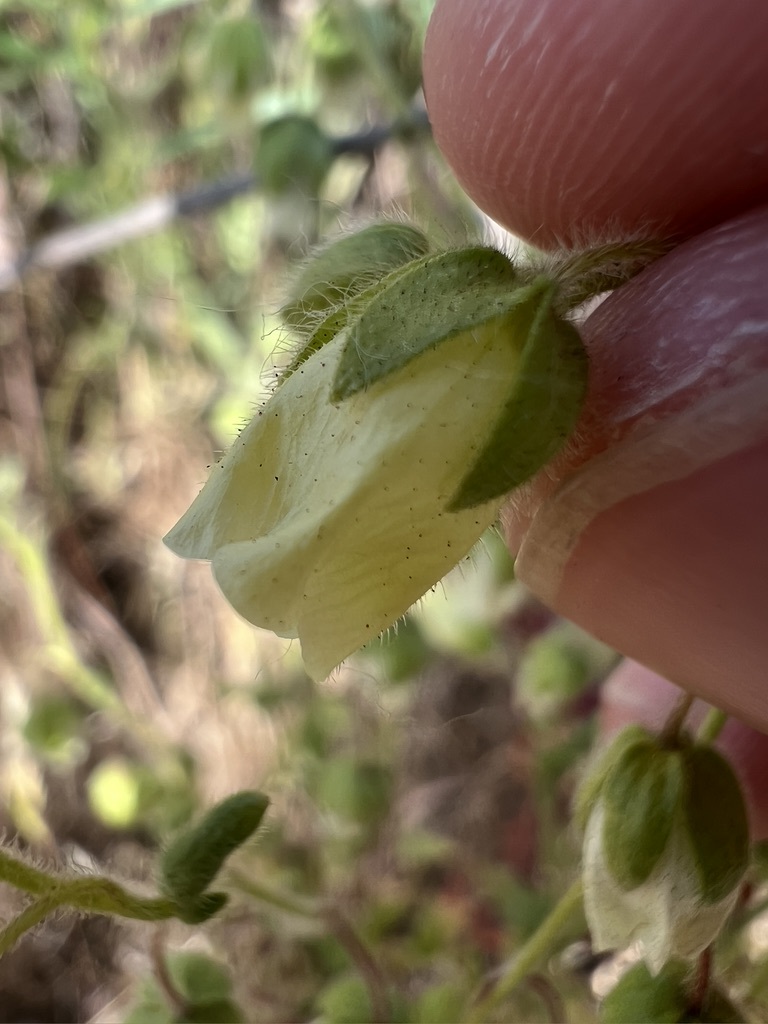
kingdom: Plantae
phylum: Tracheophyta
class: Magnoliopsida
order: Boraginales
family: Hydrophyllaceae
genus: Emmenanthe
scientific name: Emmenanthe penduliflora
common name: Whispering-bells
